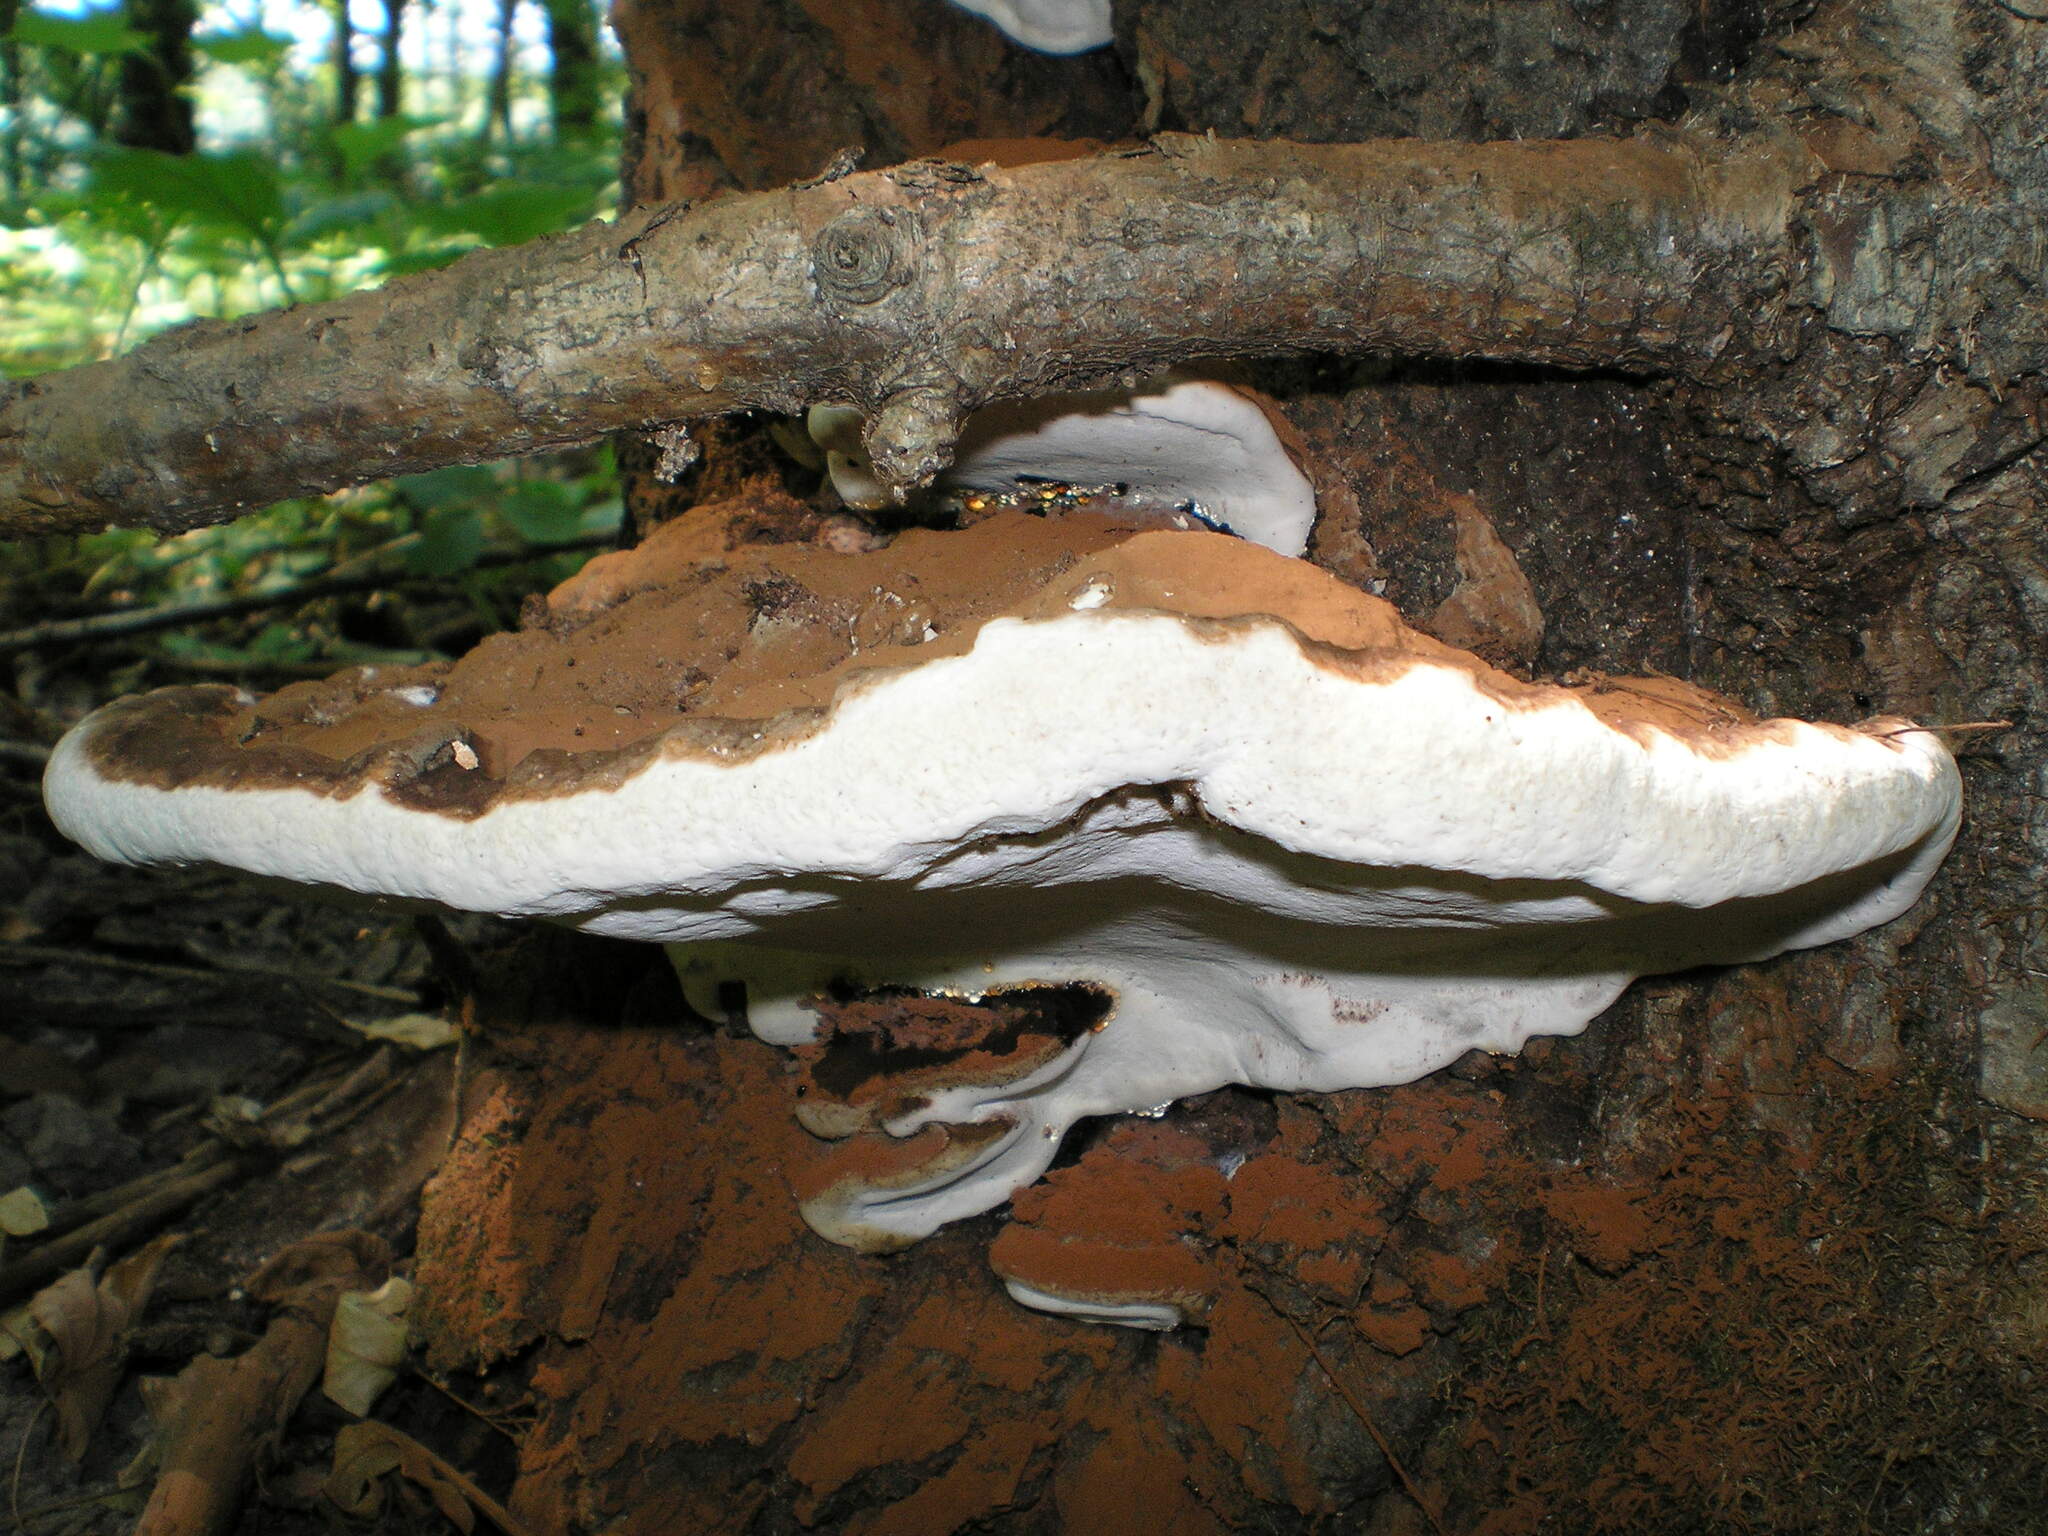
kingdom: Fungi
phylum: Basidiomycota
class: Agaricomycetes
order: Polyporales
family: Polyporaceae
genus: Ganoderma
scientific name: Ganoderma applanatum
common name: Artist's bracket
